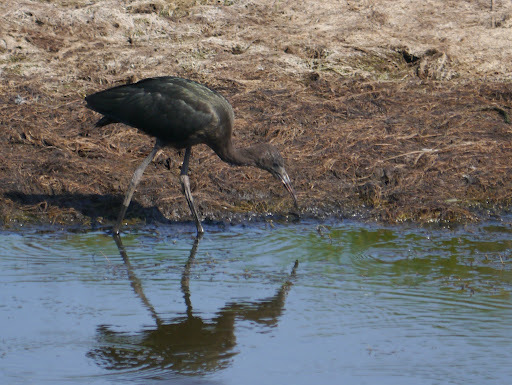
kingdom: Animalia
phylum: Chordata
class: Aves
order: Pelecaniformes
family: Threskiornithidae
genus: Plegadis
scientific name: Plegadis falcinellus
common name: Glossy ibis
